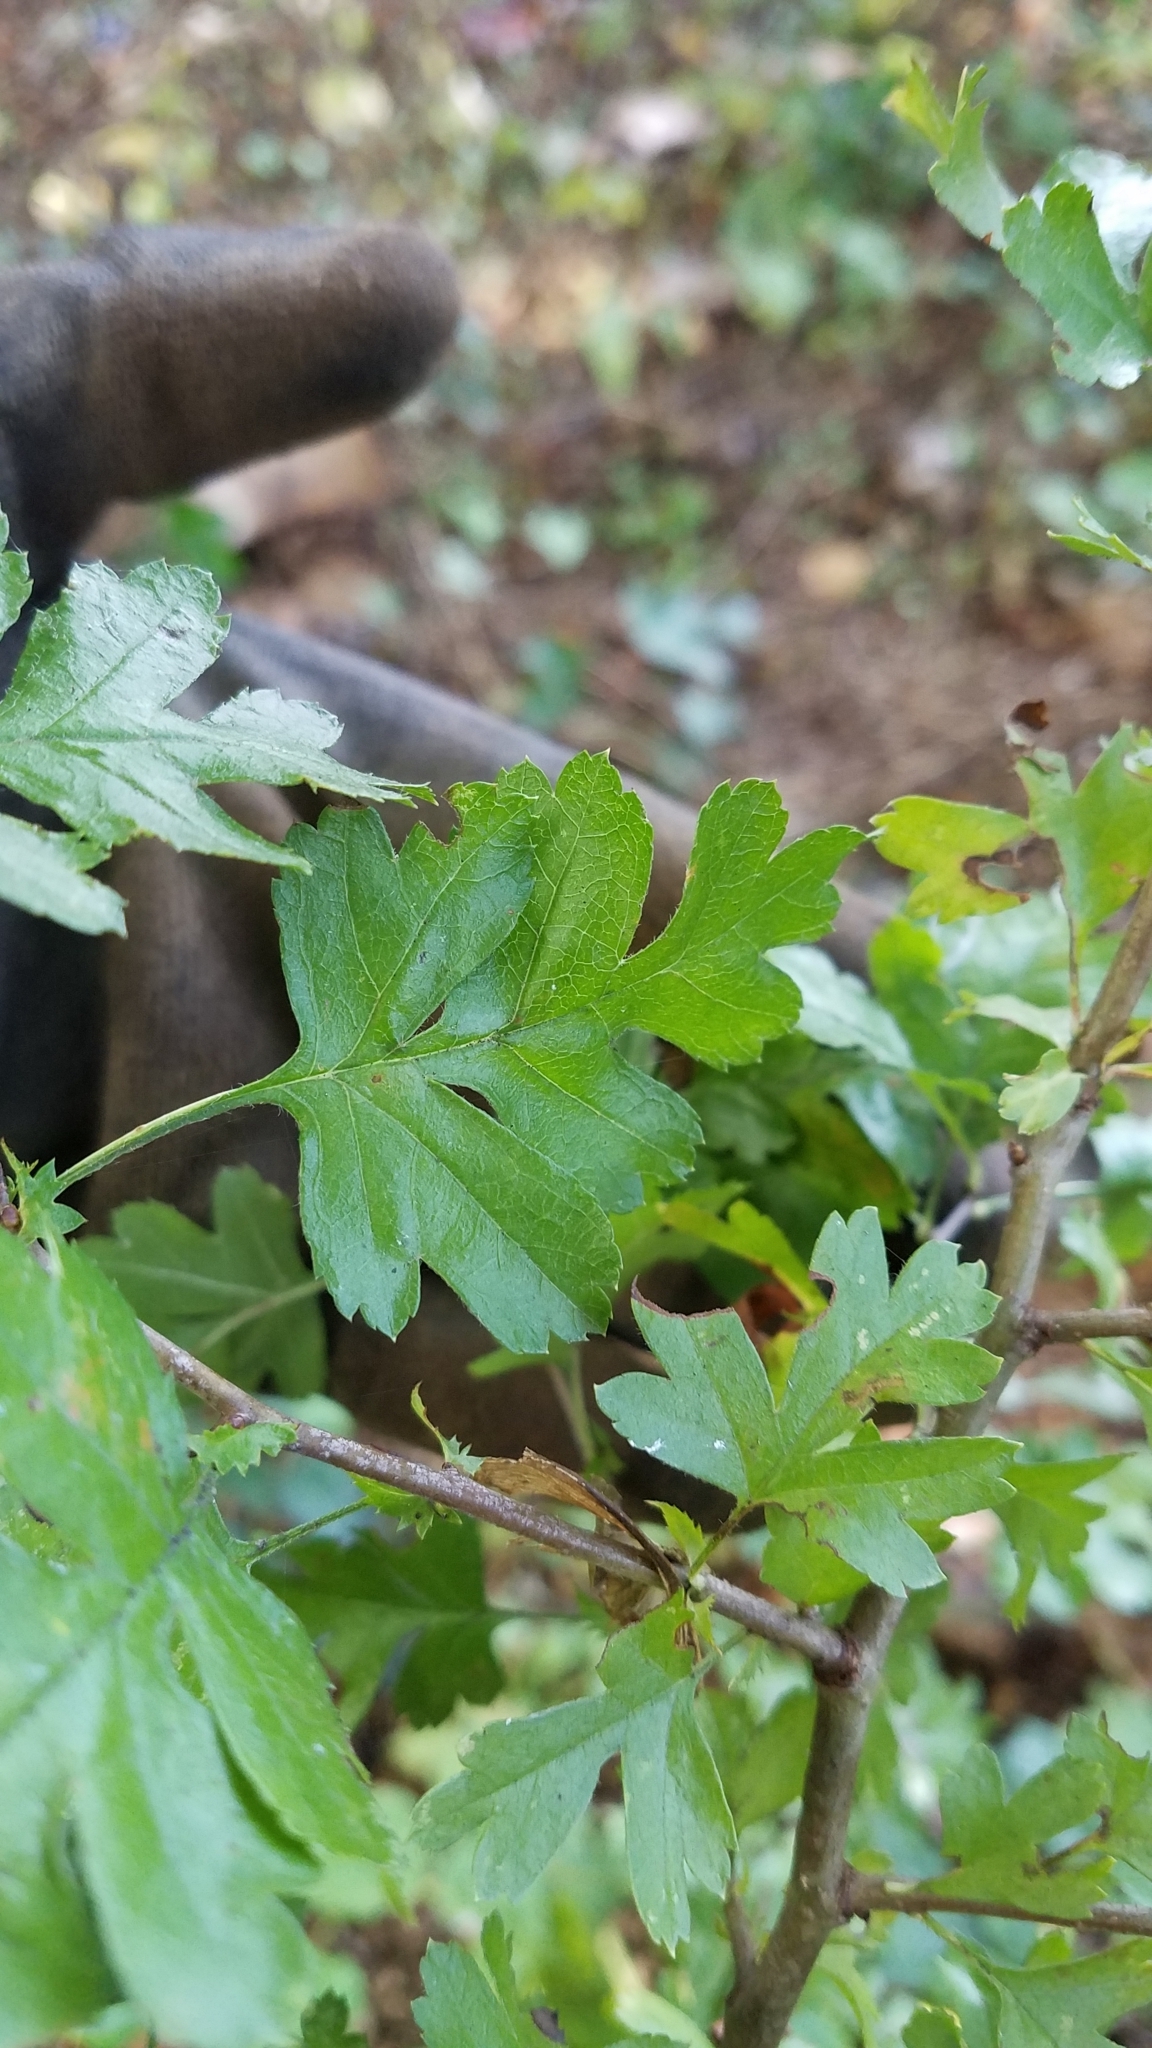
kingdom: Plantae
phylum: Tracheophyta
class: Magnoliopsida
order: Rosales
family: Rosaceae
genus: Crataegus
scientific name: Crataegus monogyna
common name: Hawthorn
